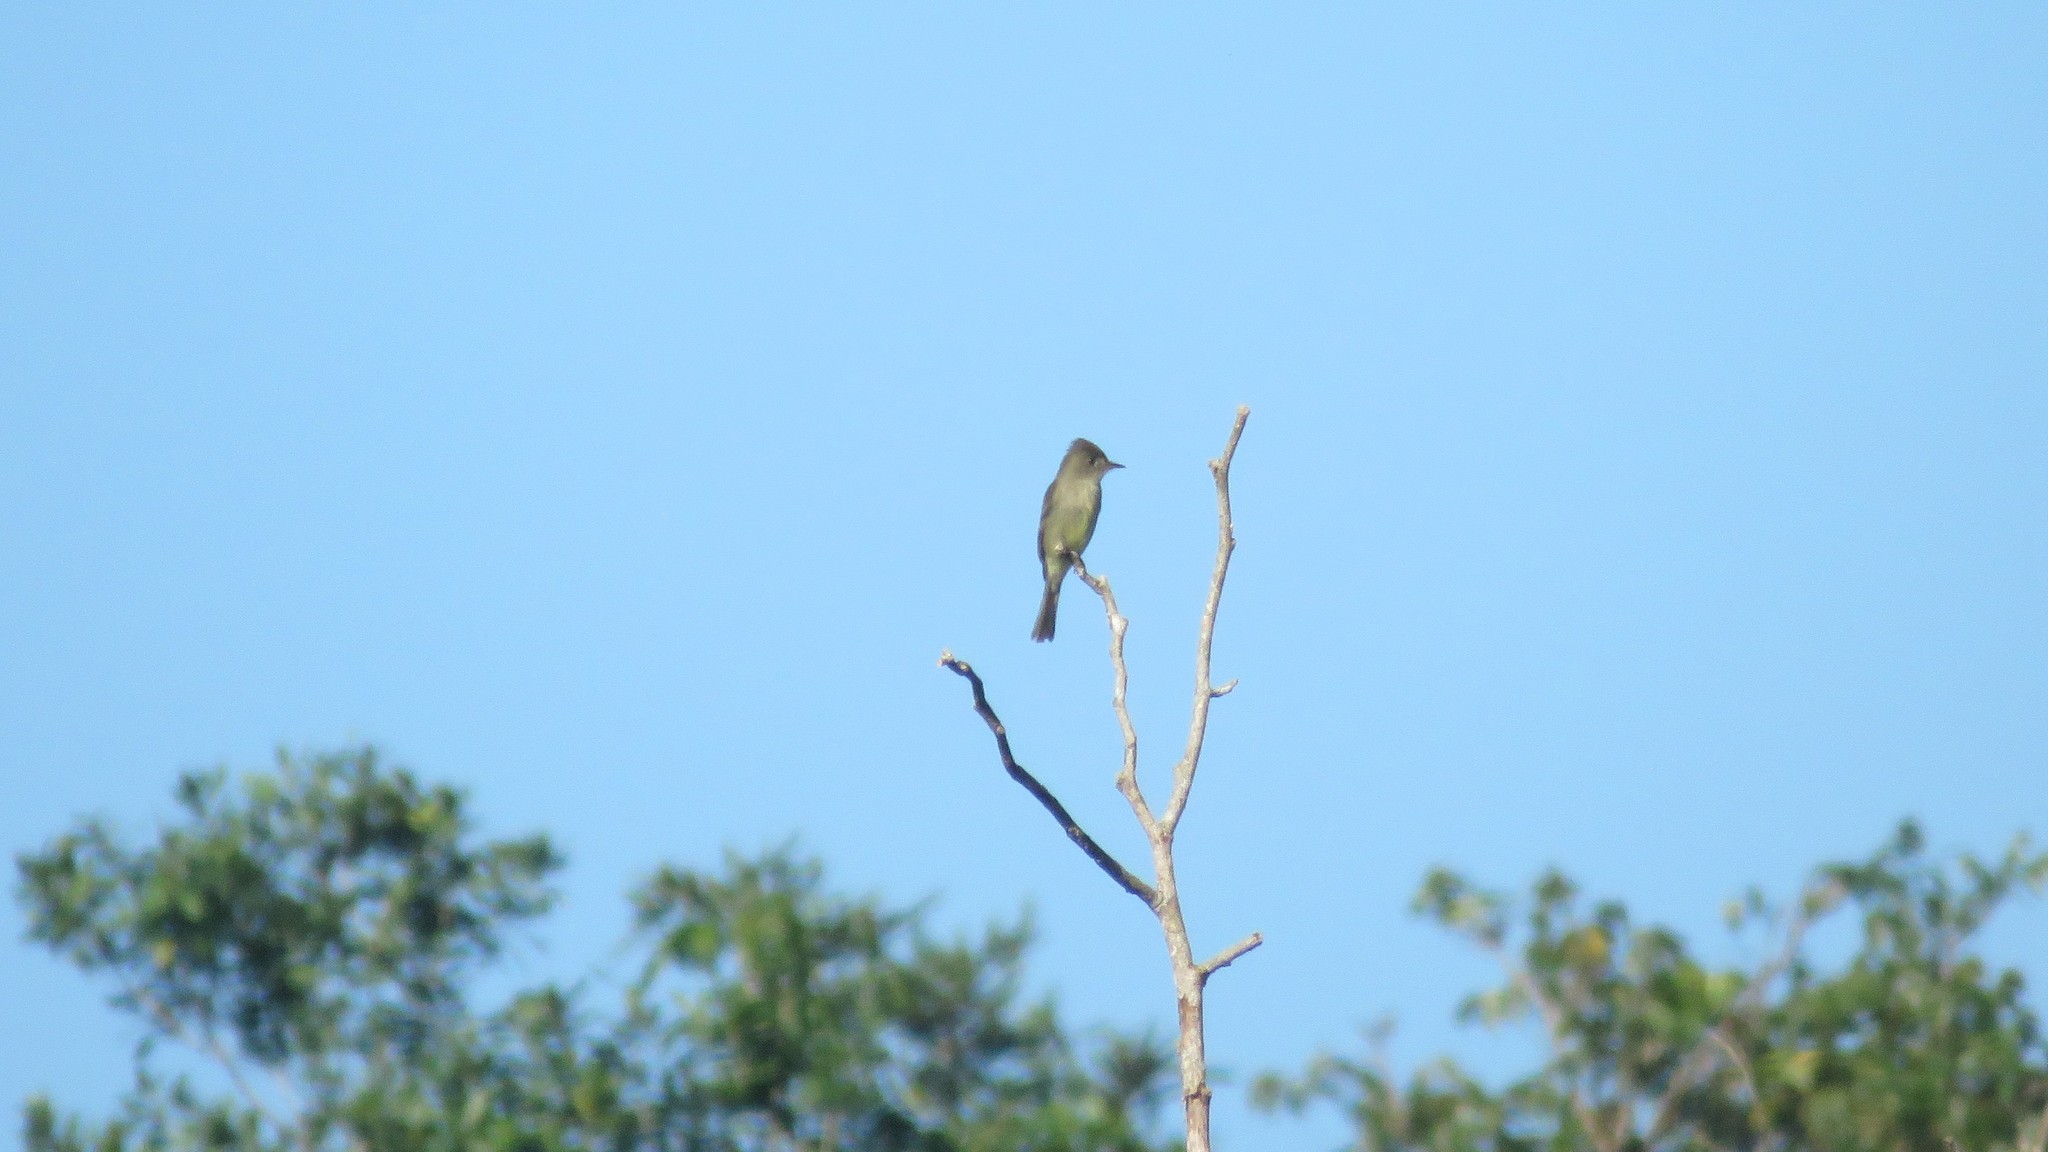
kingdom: Animalia
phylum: Chordata
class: Aves
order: Passeriformes
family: Tyrannidae
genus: Contopus
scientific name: Contopus cinereus
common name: Tropical pewee
